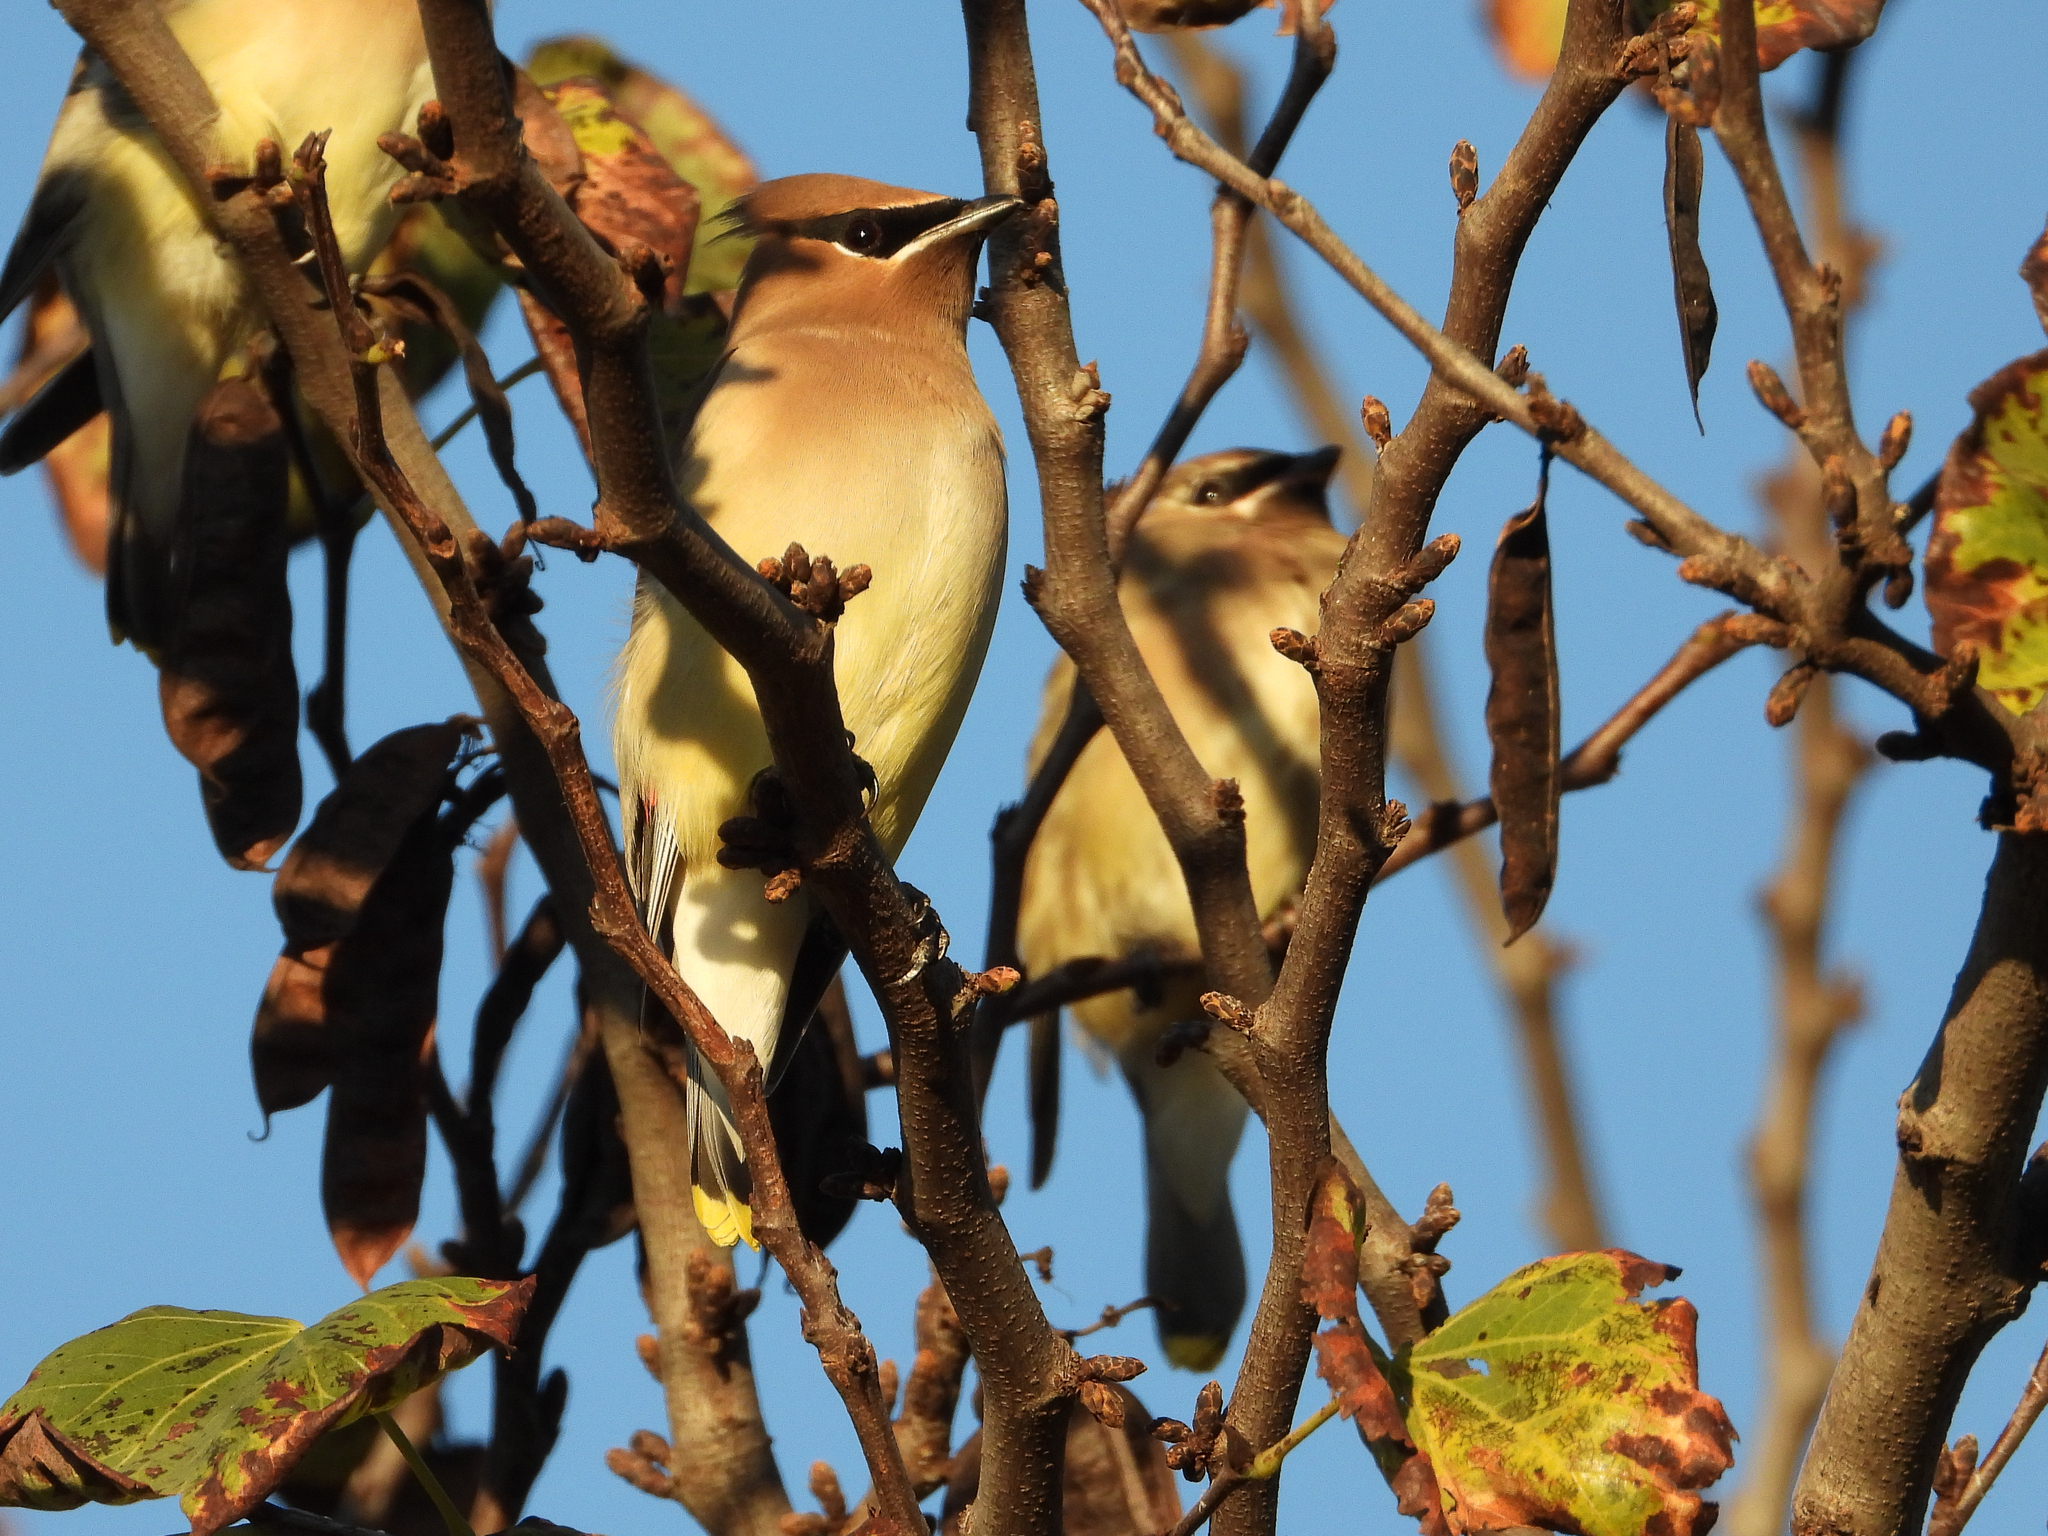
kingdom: Animalia
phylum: Chordata
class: Aves
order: Passeriformes
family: Bombycillidae
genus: Bombycilla
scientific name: Bombycilla cedrorum
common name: Cedar waxwing
